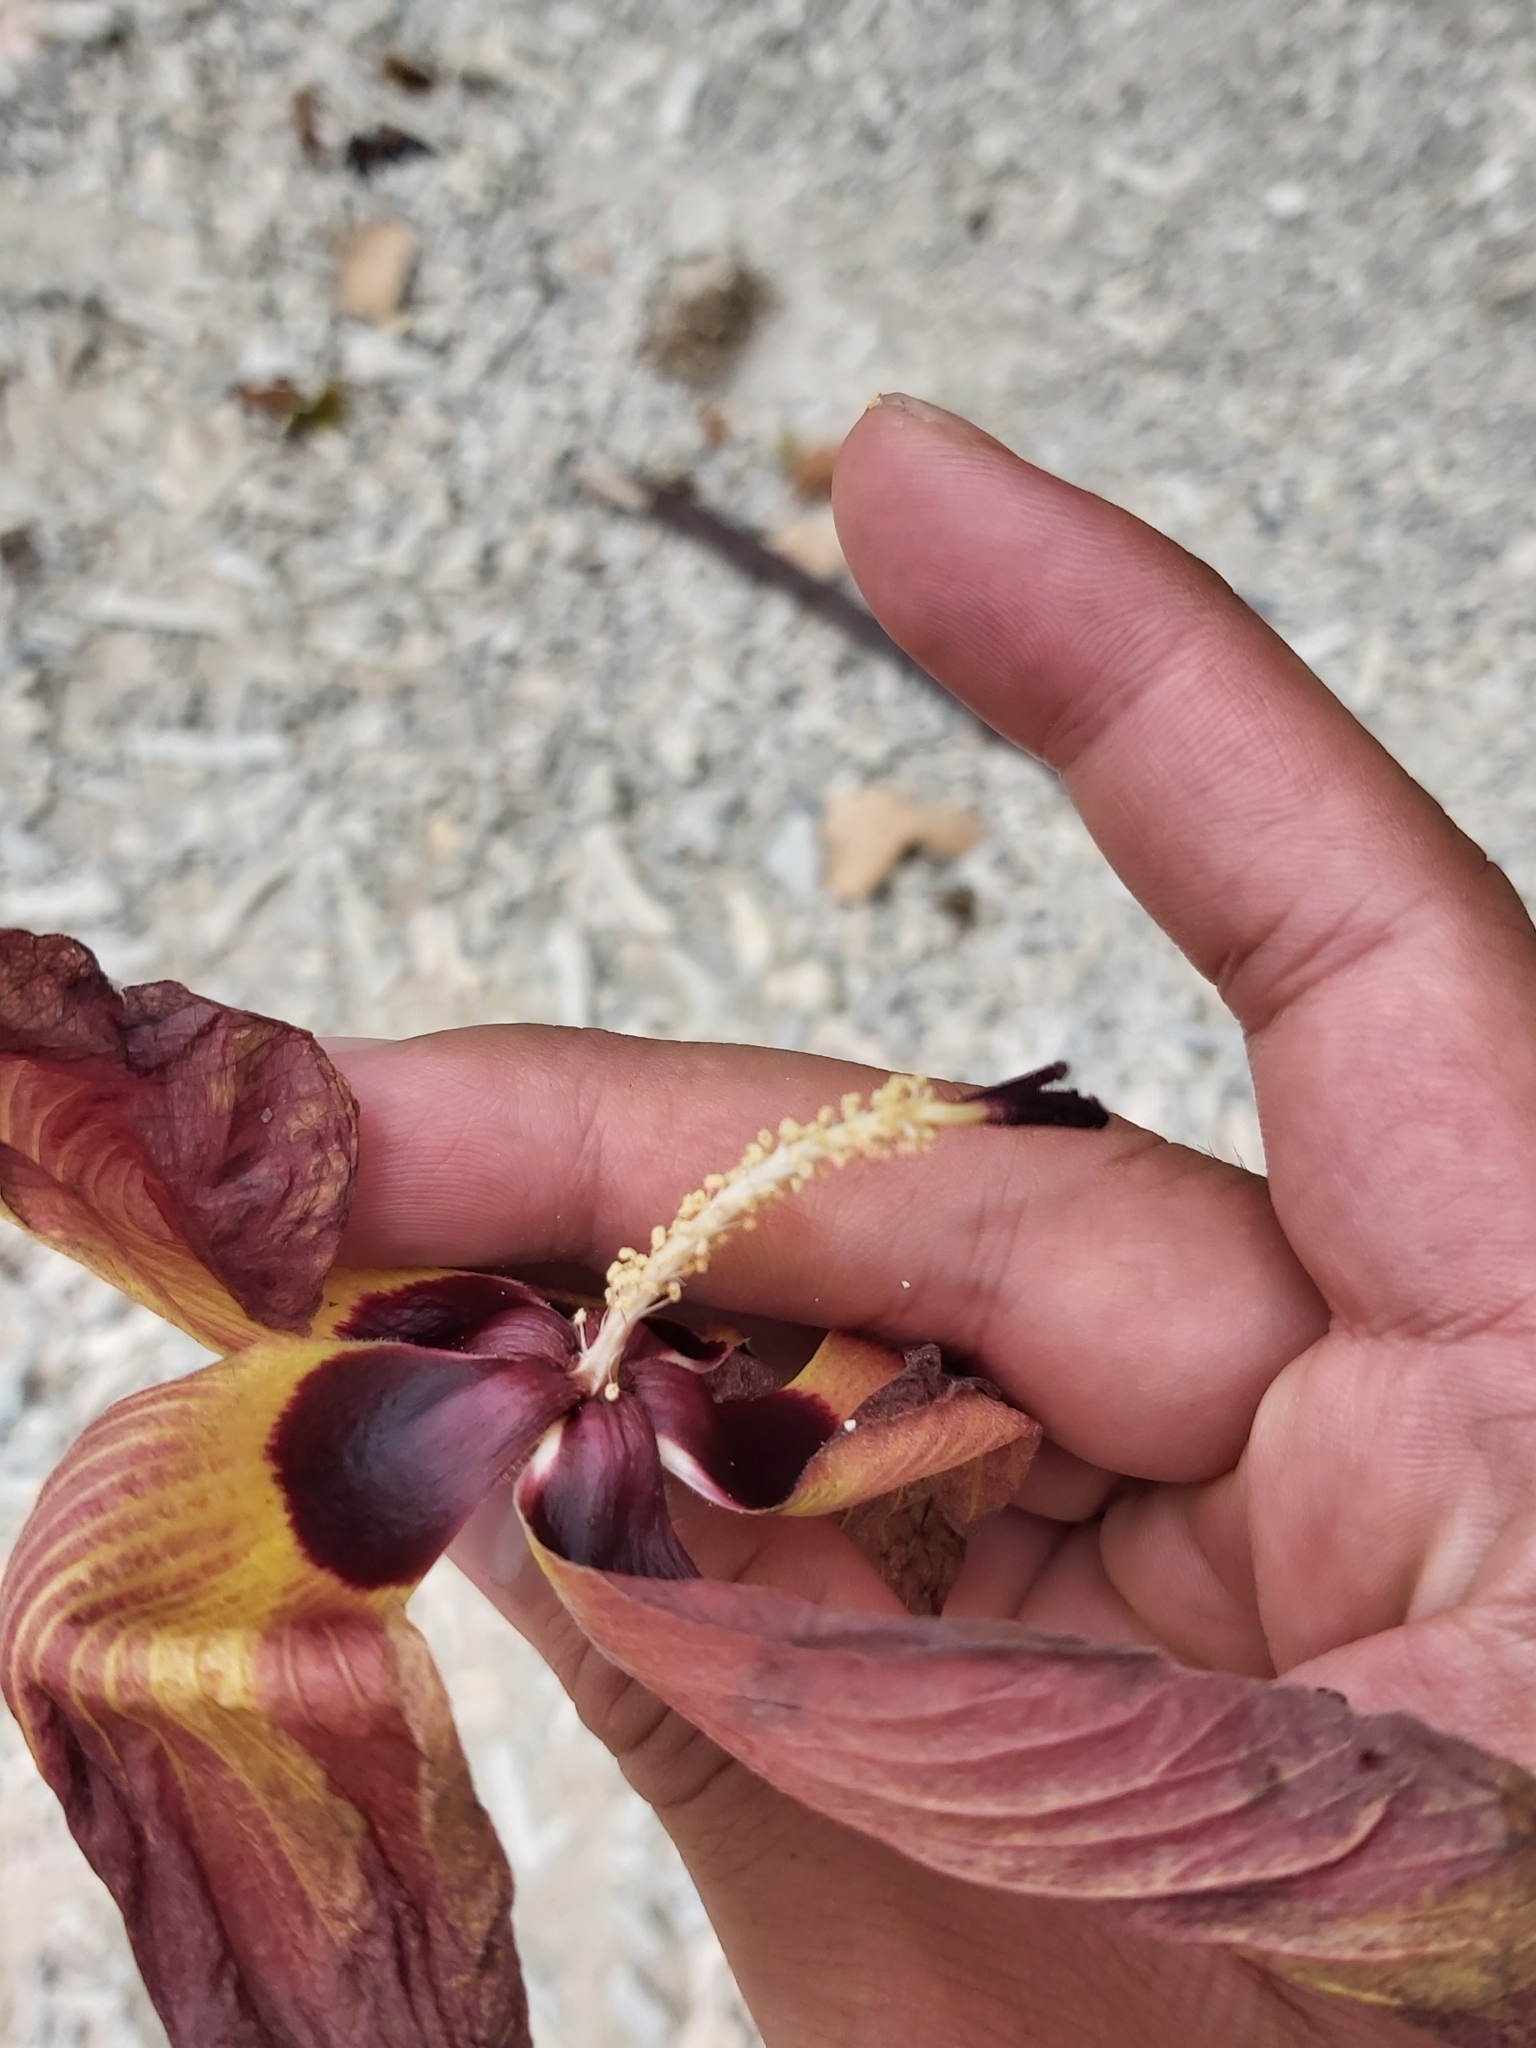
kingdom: Plantae
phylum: Tracheophyta
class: Magnoliopsida
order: Malvales
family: Malvaceae
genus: Talipariti
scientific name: Talipariti tiliaceum
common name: Sea hibiscus
